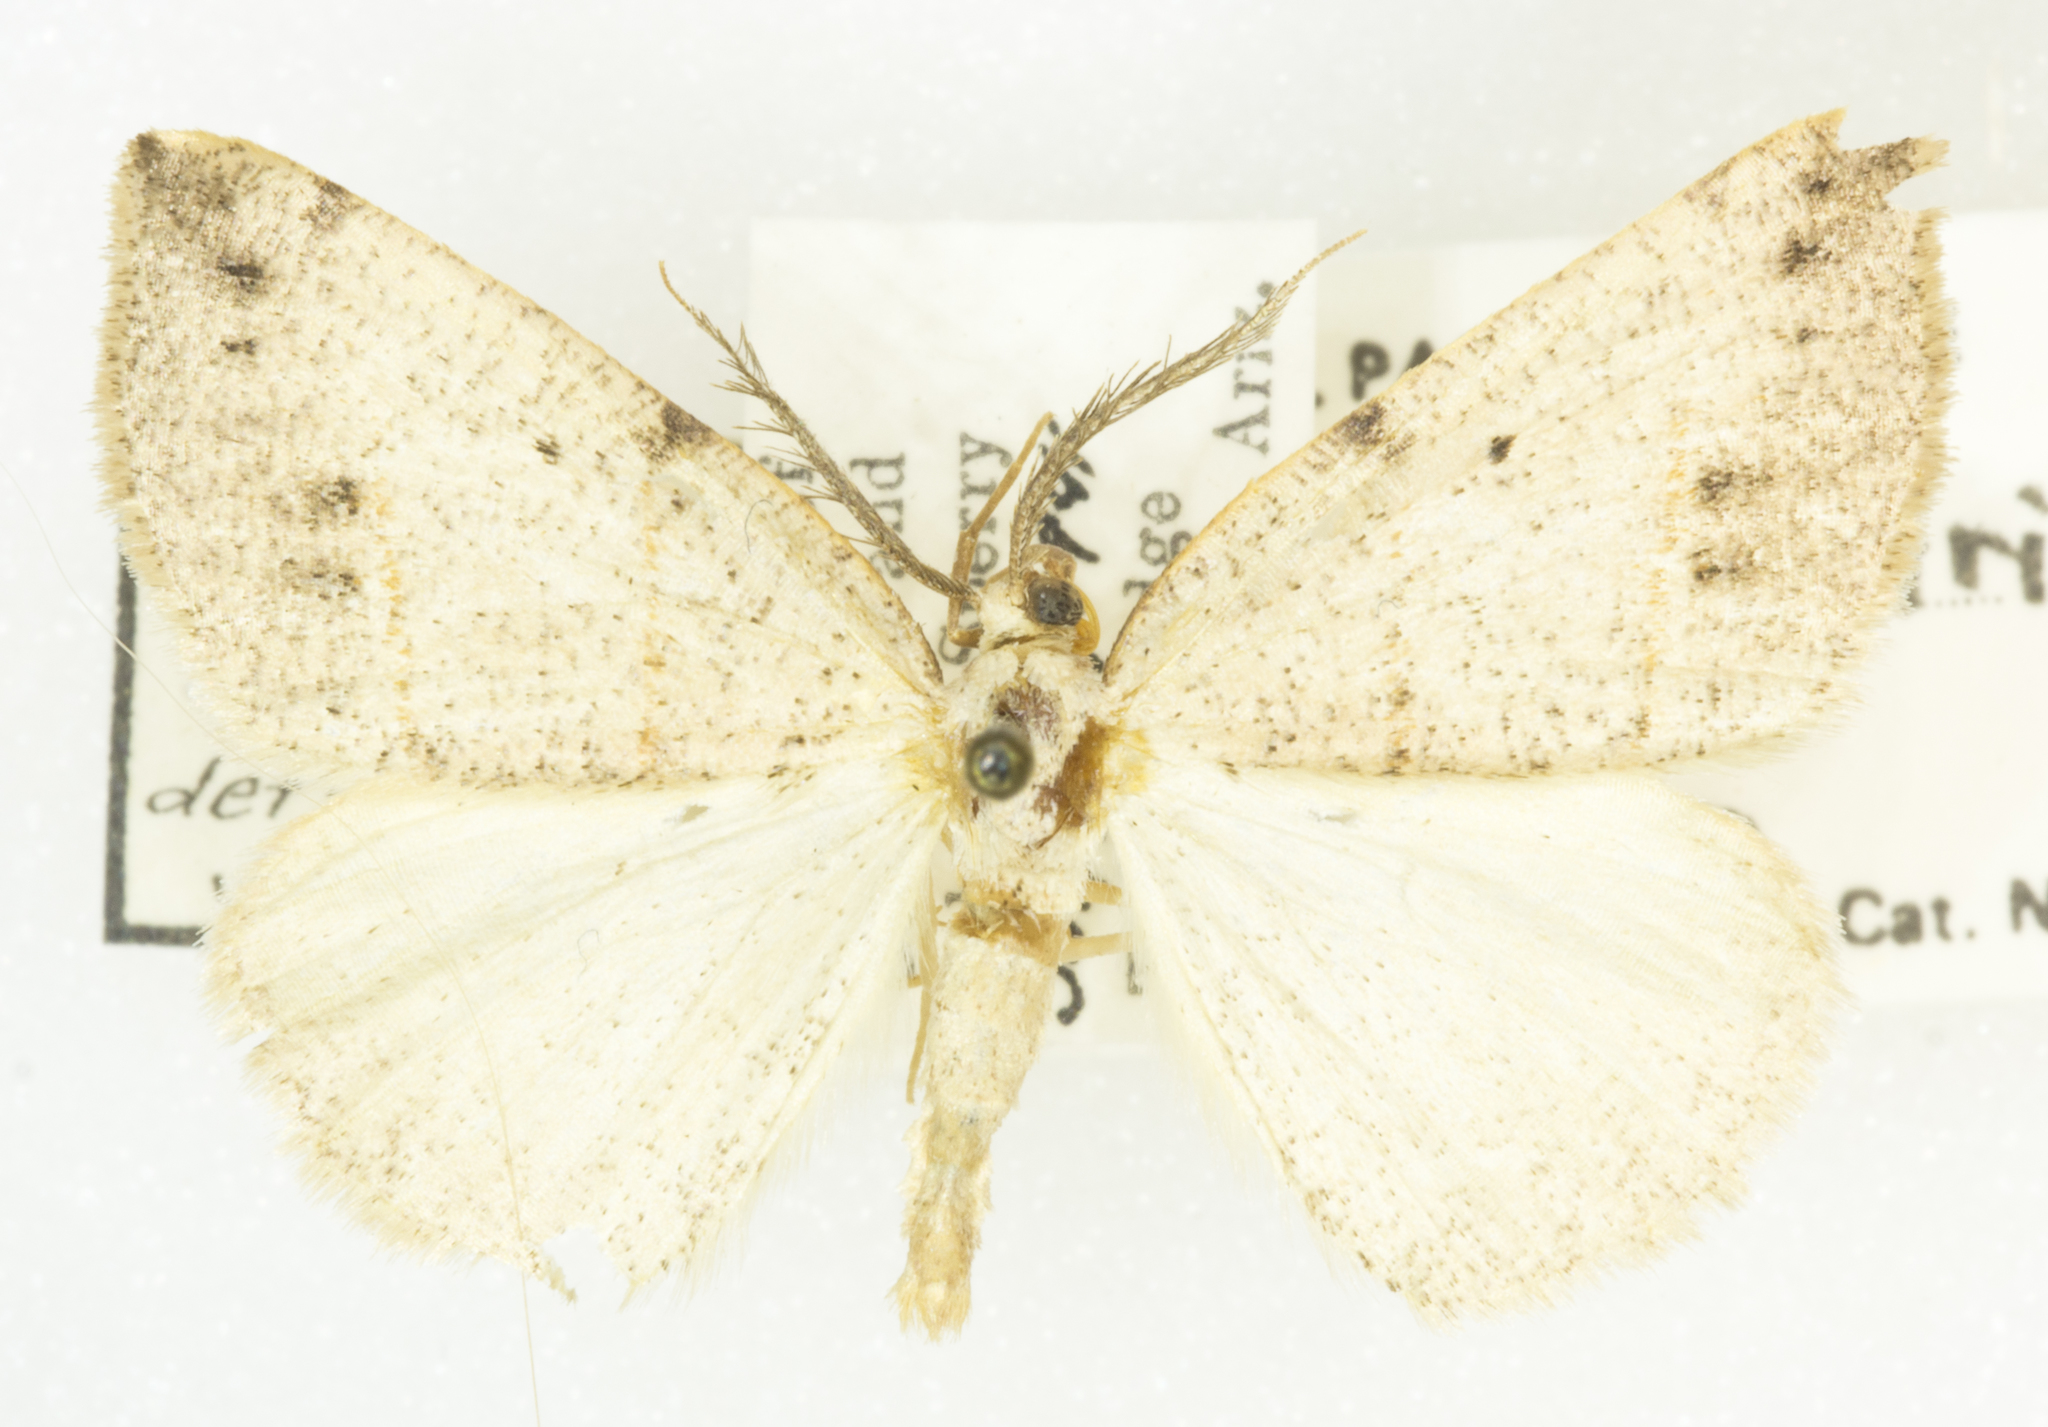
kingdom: Animalia
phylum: Arthropoda
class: Insecta
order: Lepidoptera
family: Geometridae
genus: Drepanulatrix
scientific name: Drepanulatrix bifilata
